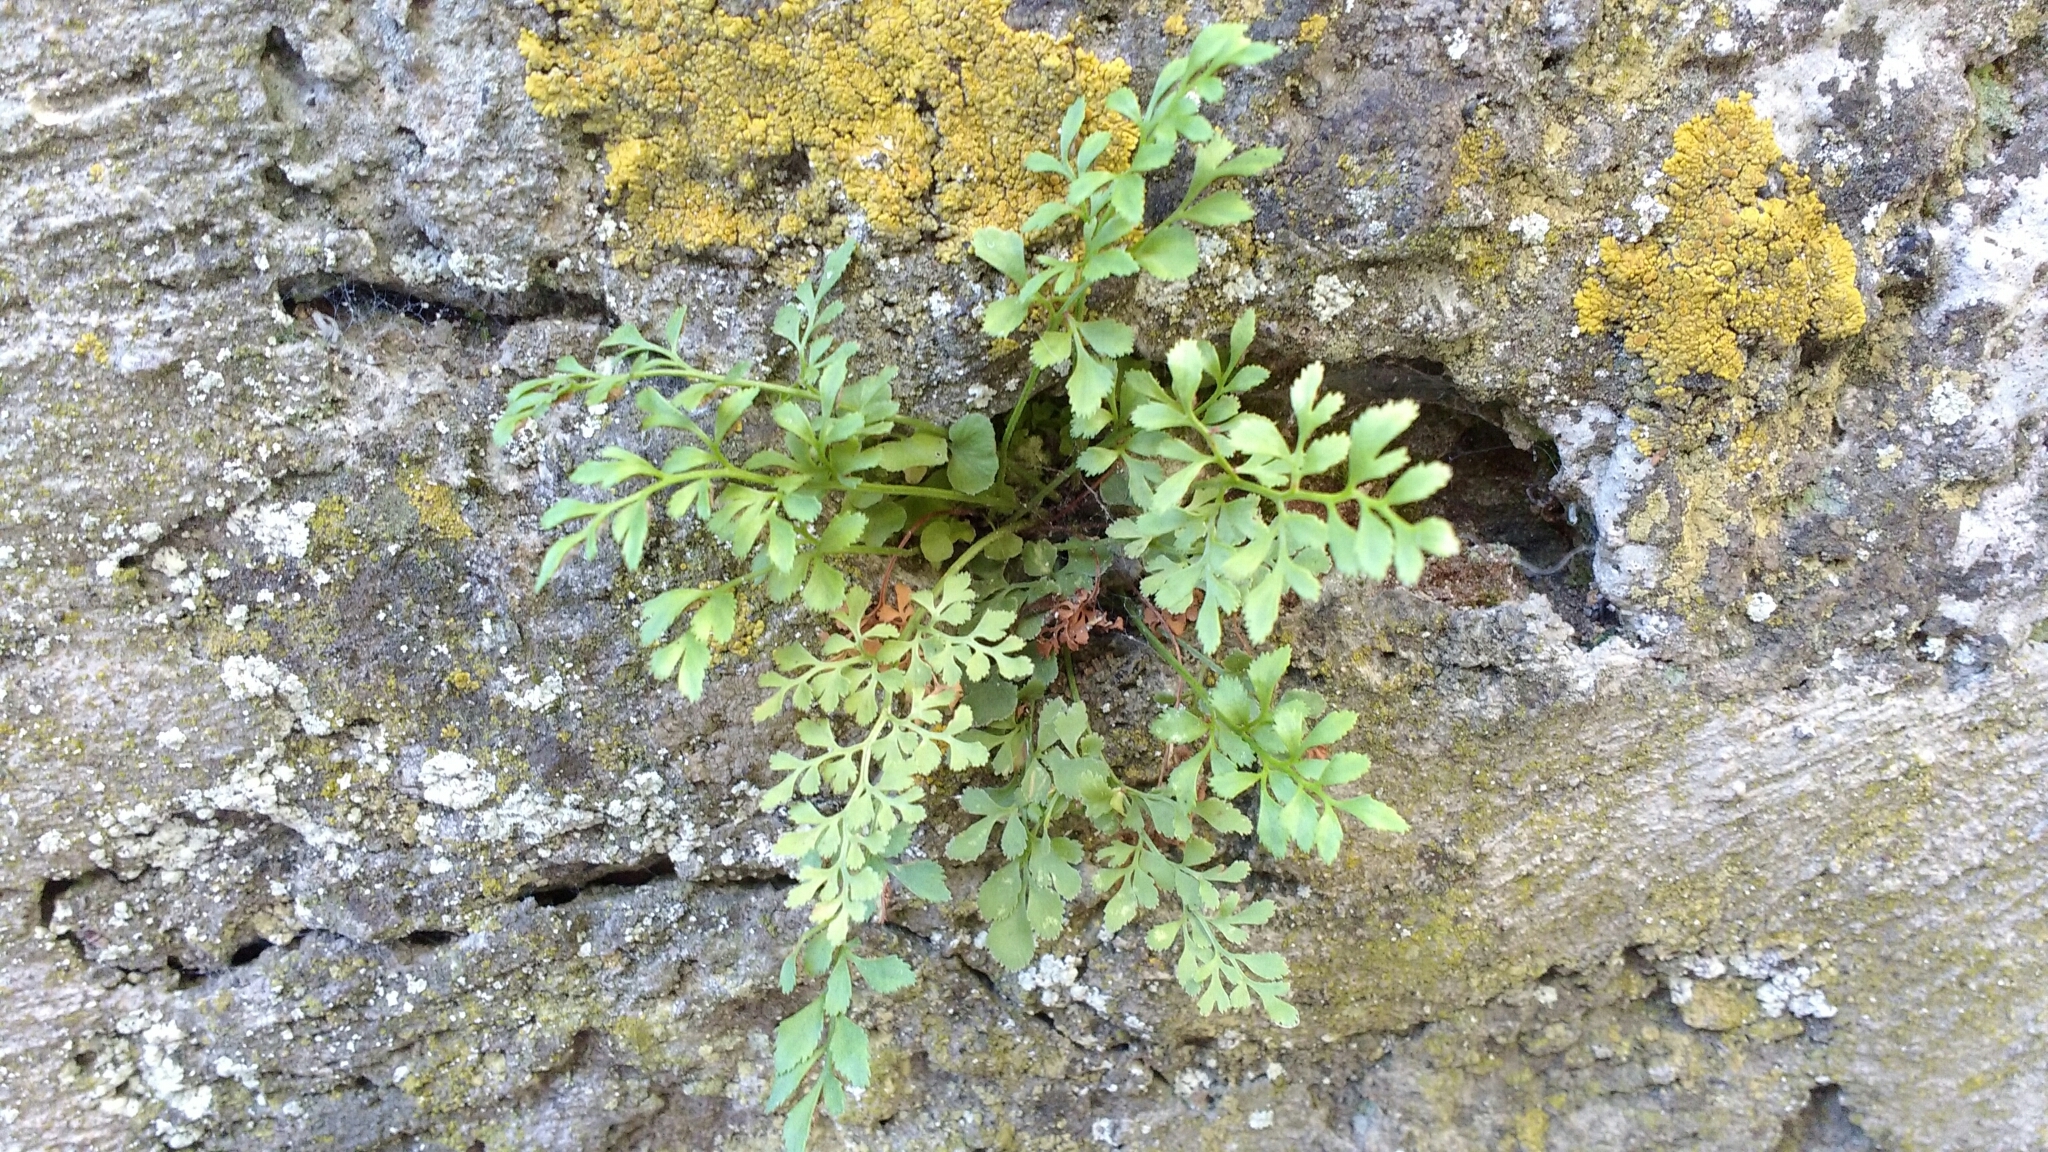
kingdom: Plantae
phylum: Tracheophyta
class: Polypodiopsida
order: Polypodiales
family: Aspleniaceae
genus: Asplenium
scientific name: Asplenium ruta-muraria
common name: Wall-rue
